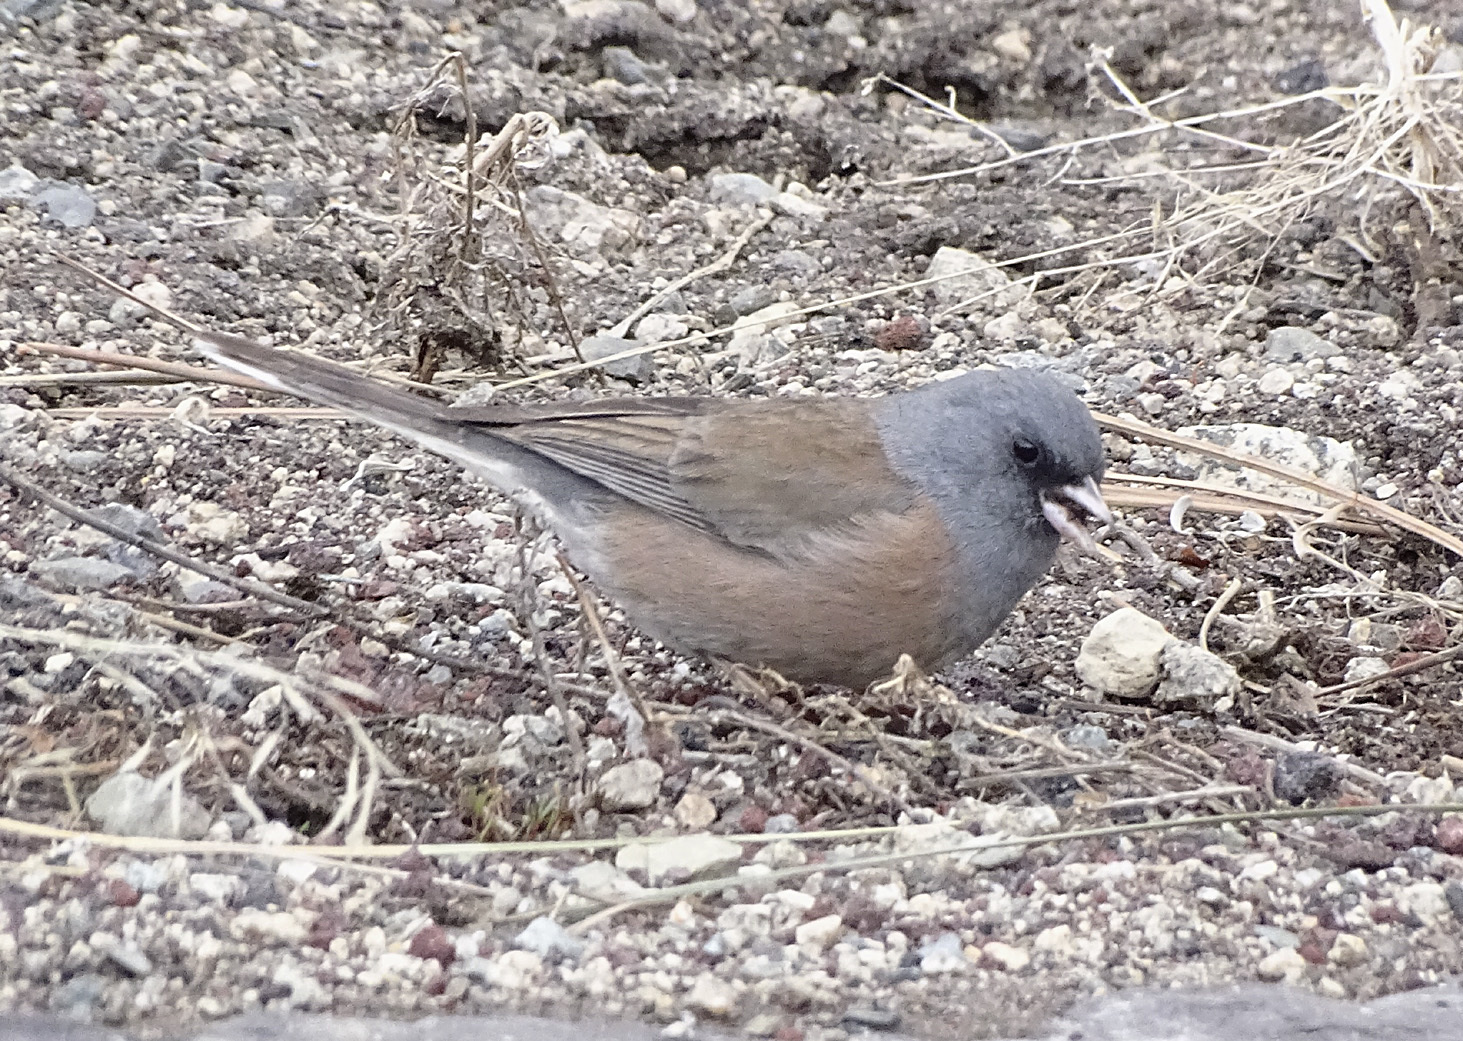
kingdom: Animalia
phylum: Chordata
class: Aves
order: Passeriformes
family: Passerellidae
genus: Junco
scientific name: Junco hyemalis
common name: Dark-eyed junco
